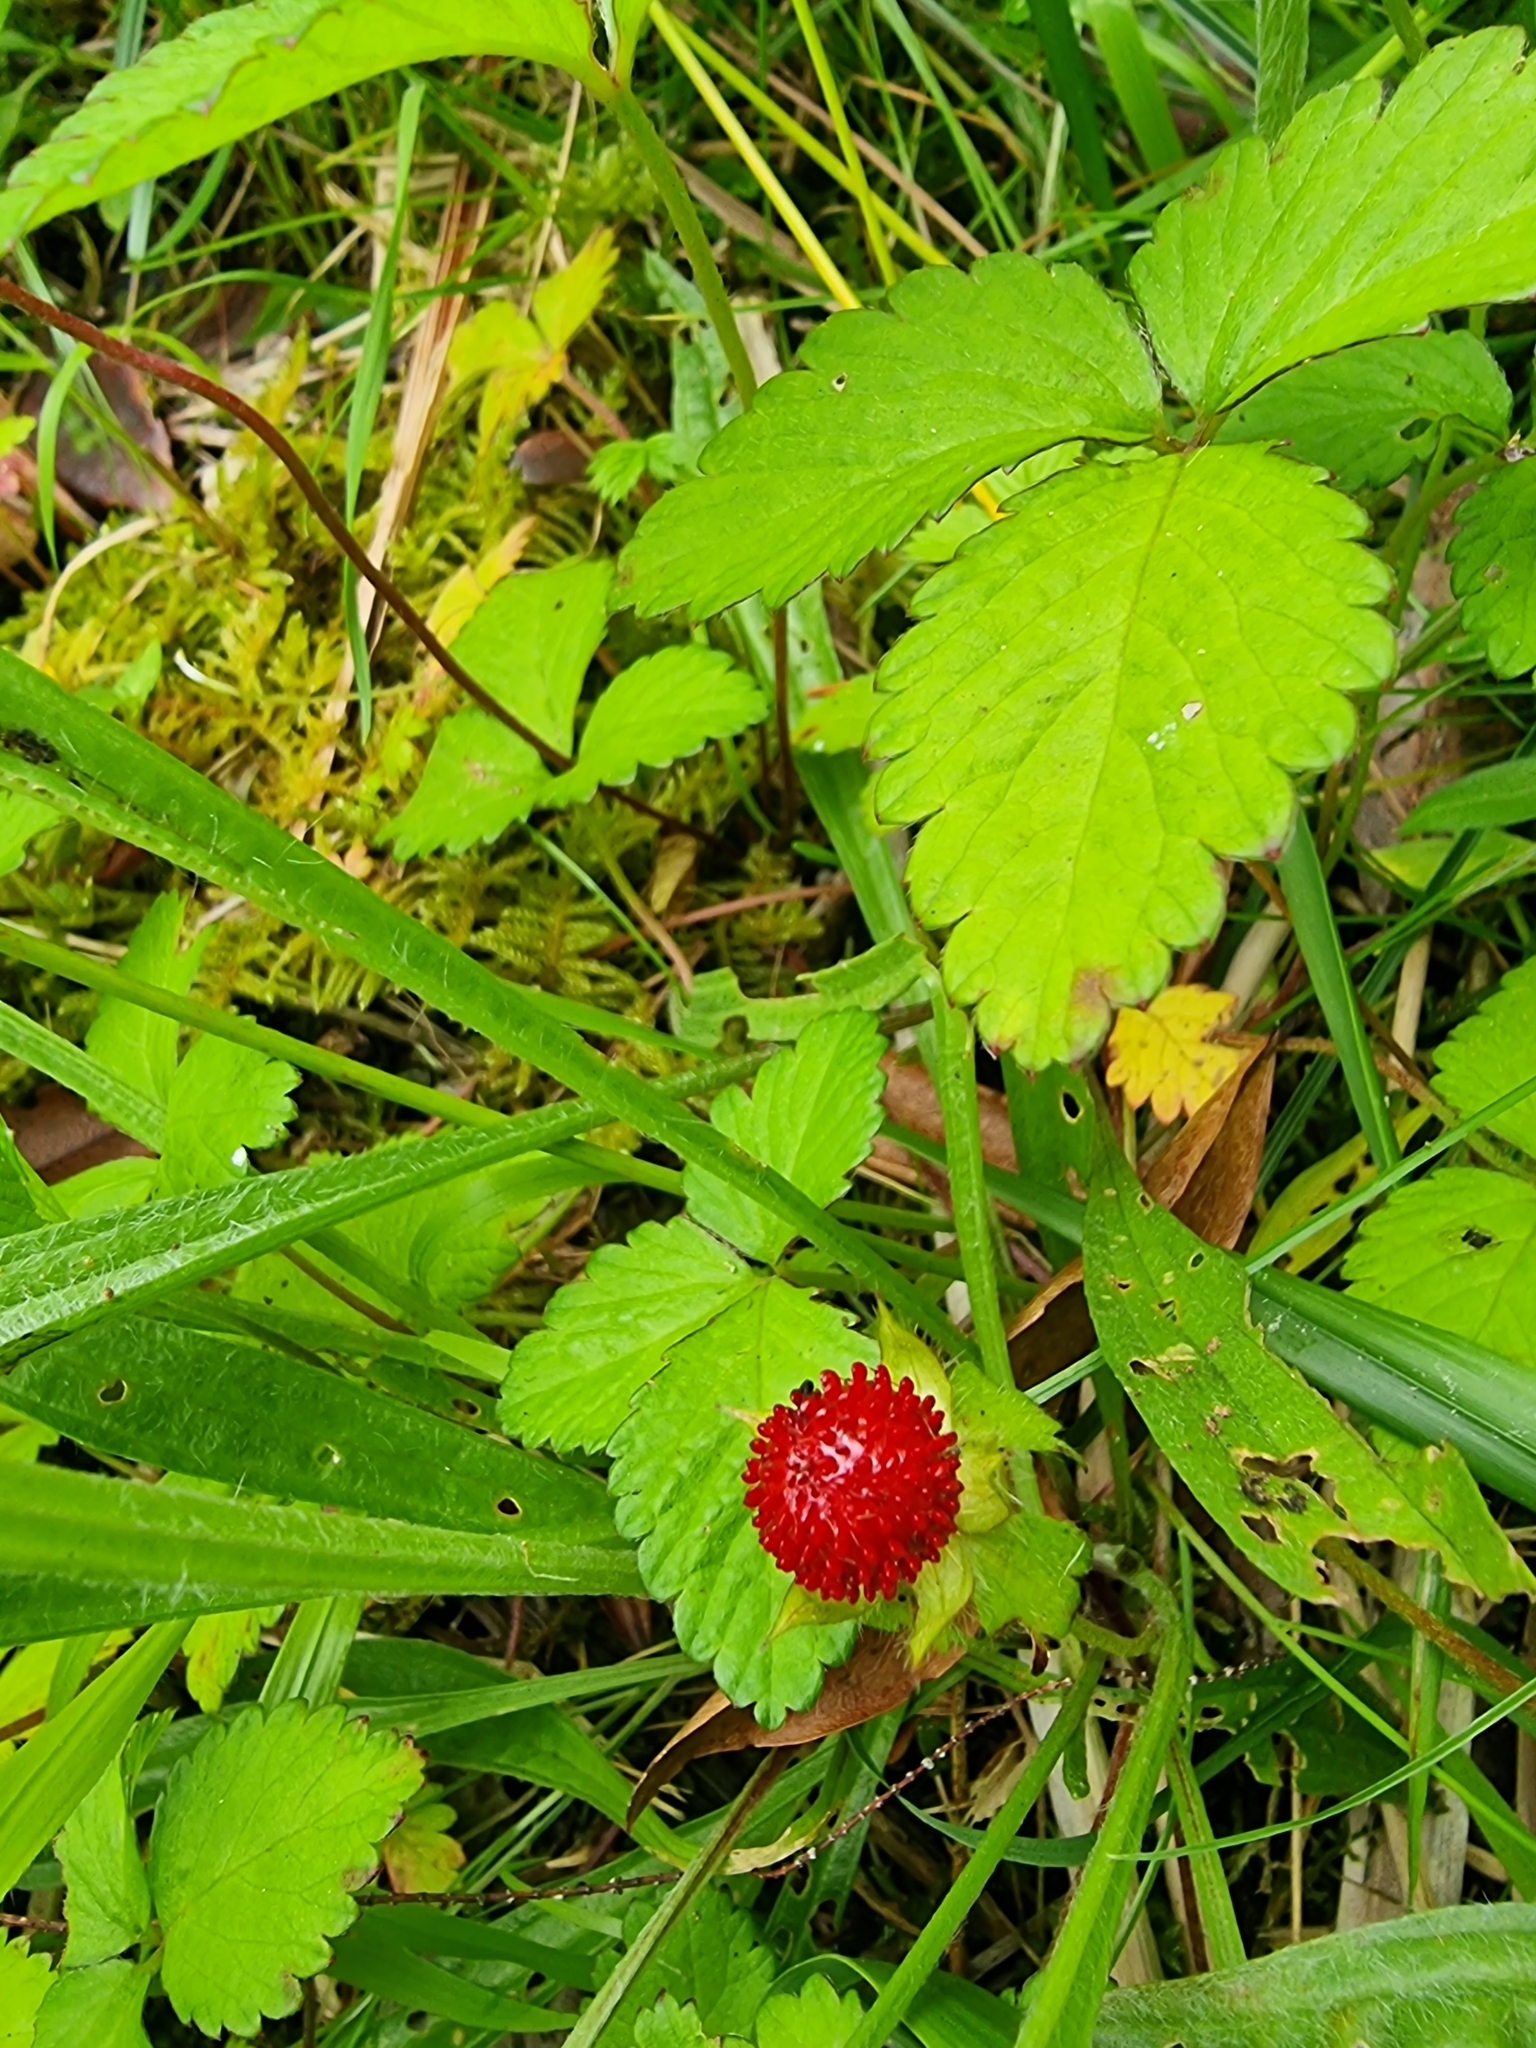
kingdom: Plantae
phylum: Tracheophyta
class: Magnoliopsida
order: Rosales
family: Rosaceae
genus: Potentilla
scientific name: Potentilla indica
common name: Yellow-flowered strawberry
